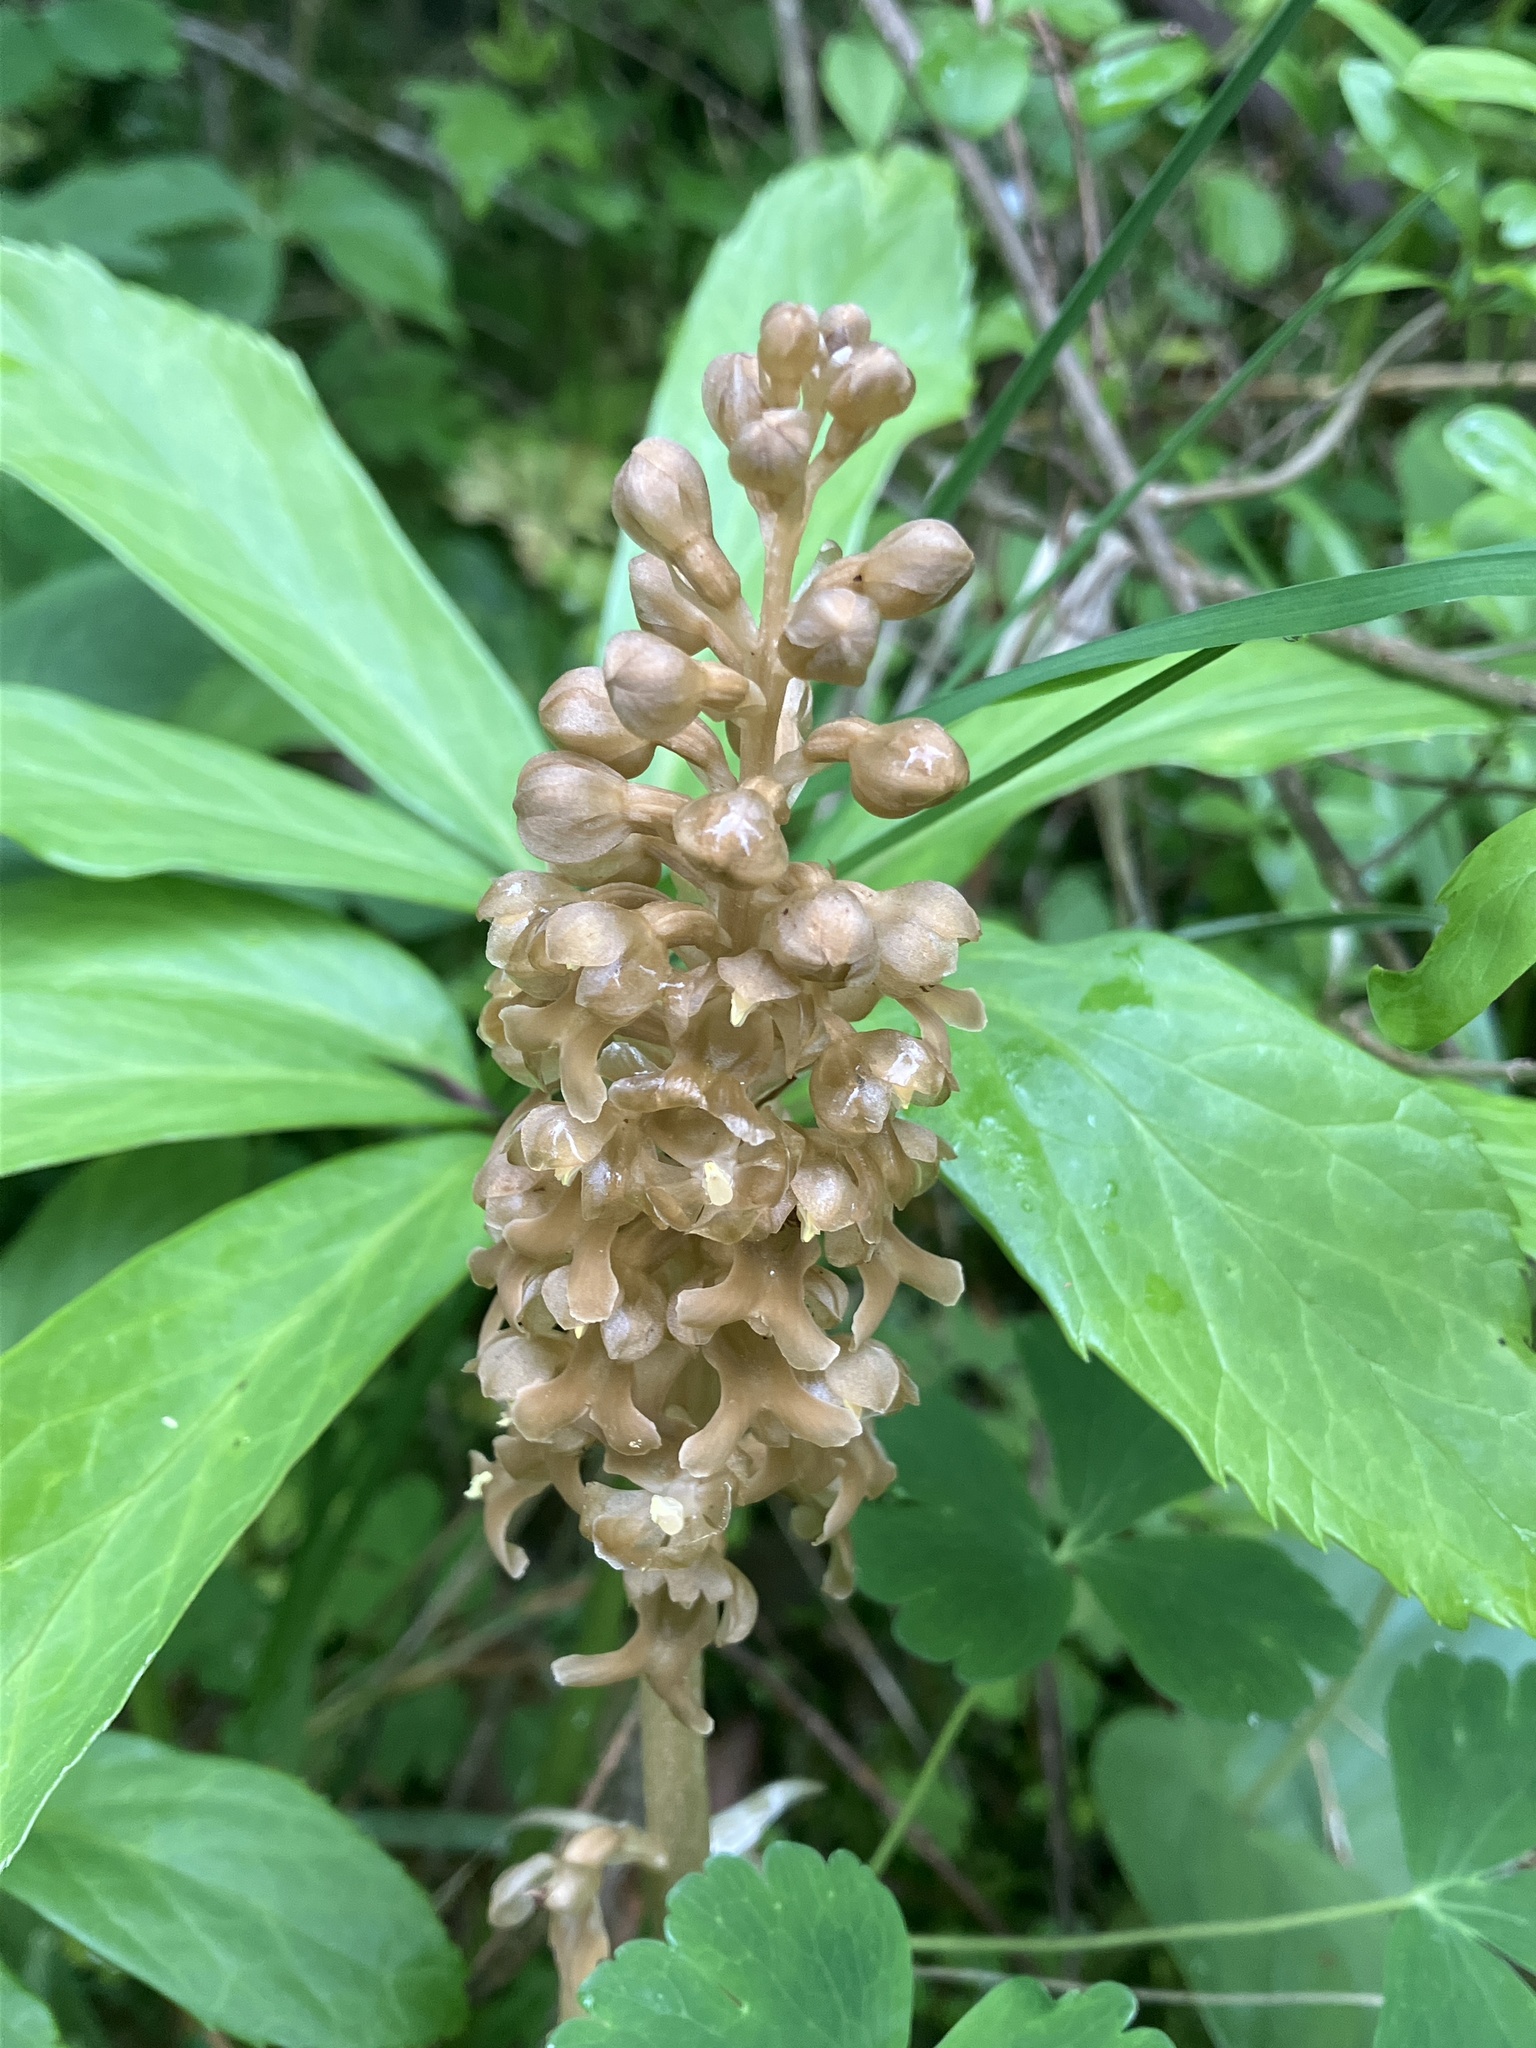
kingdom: Plantae
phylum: Tracheophyta
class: Liliopsida
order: Asparagales
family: Orchidaceae
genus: Neottia
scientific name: Neottia nidus-avis
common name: Bird's-nest orchid
